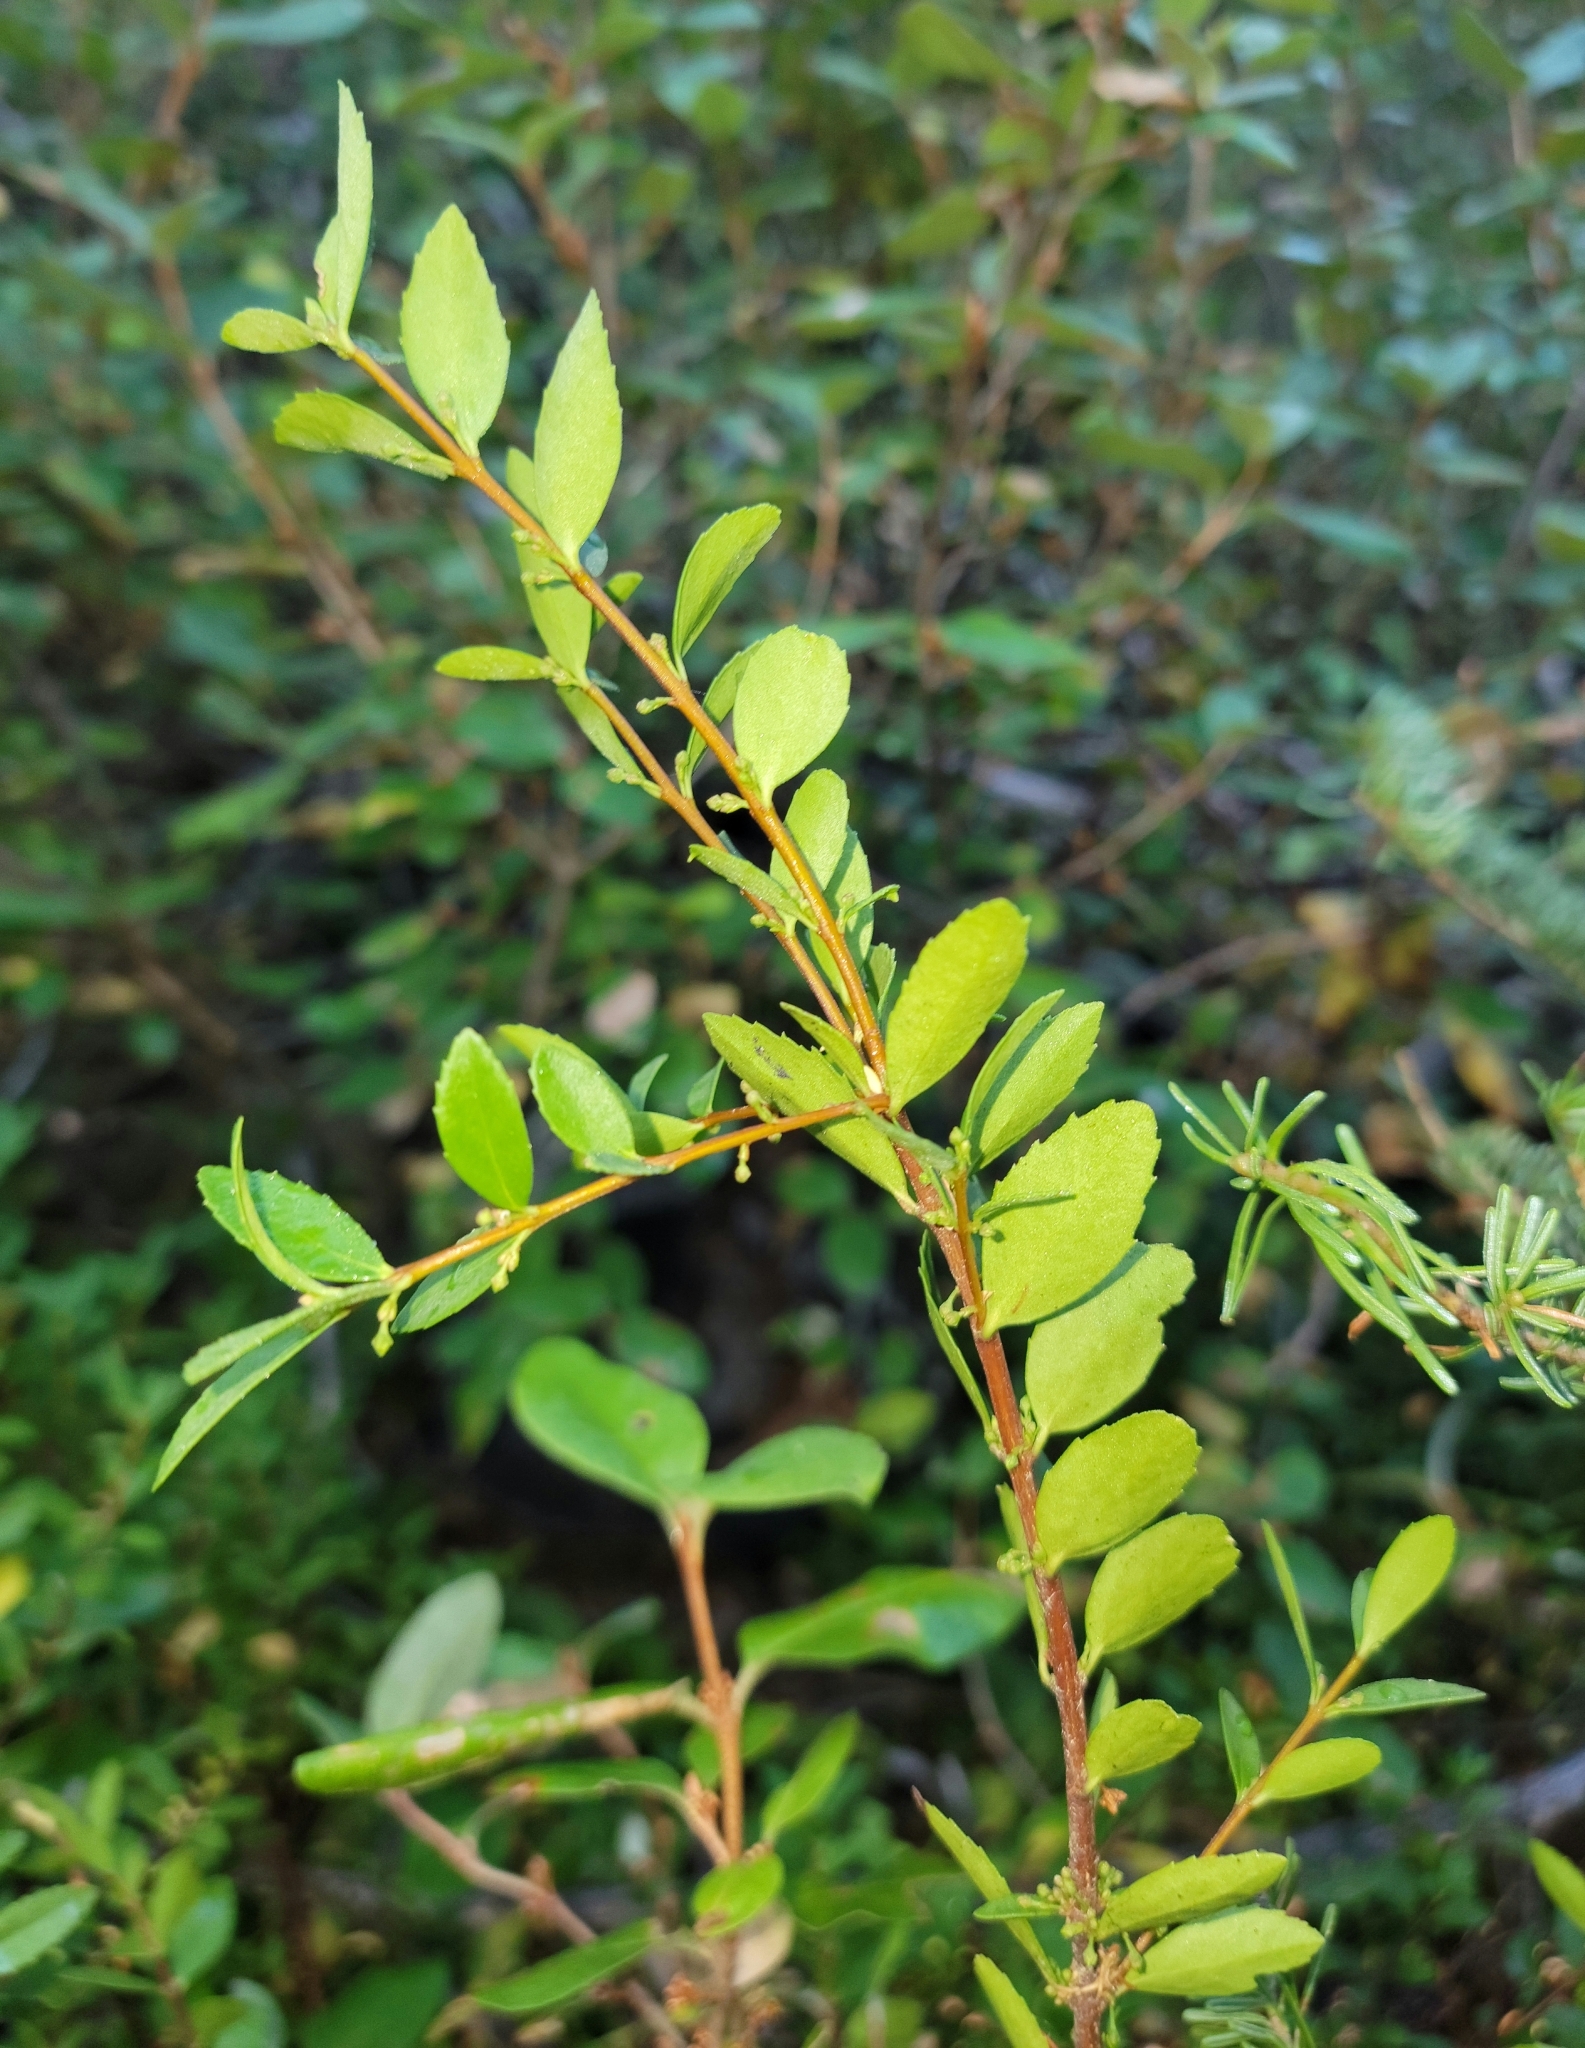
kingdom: Plantae
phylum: Tracheophyta
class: Magnoliopsida
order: Celastrales
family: Celastraceae
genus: Paxistima
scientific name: Paxistima myrsinites
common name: Mountain-lover
